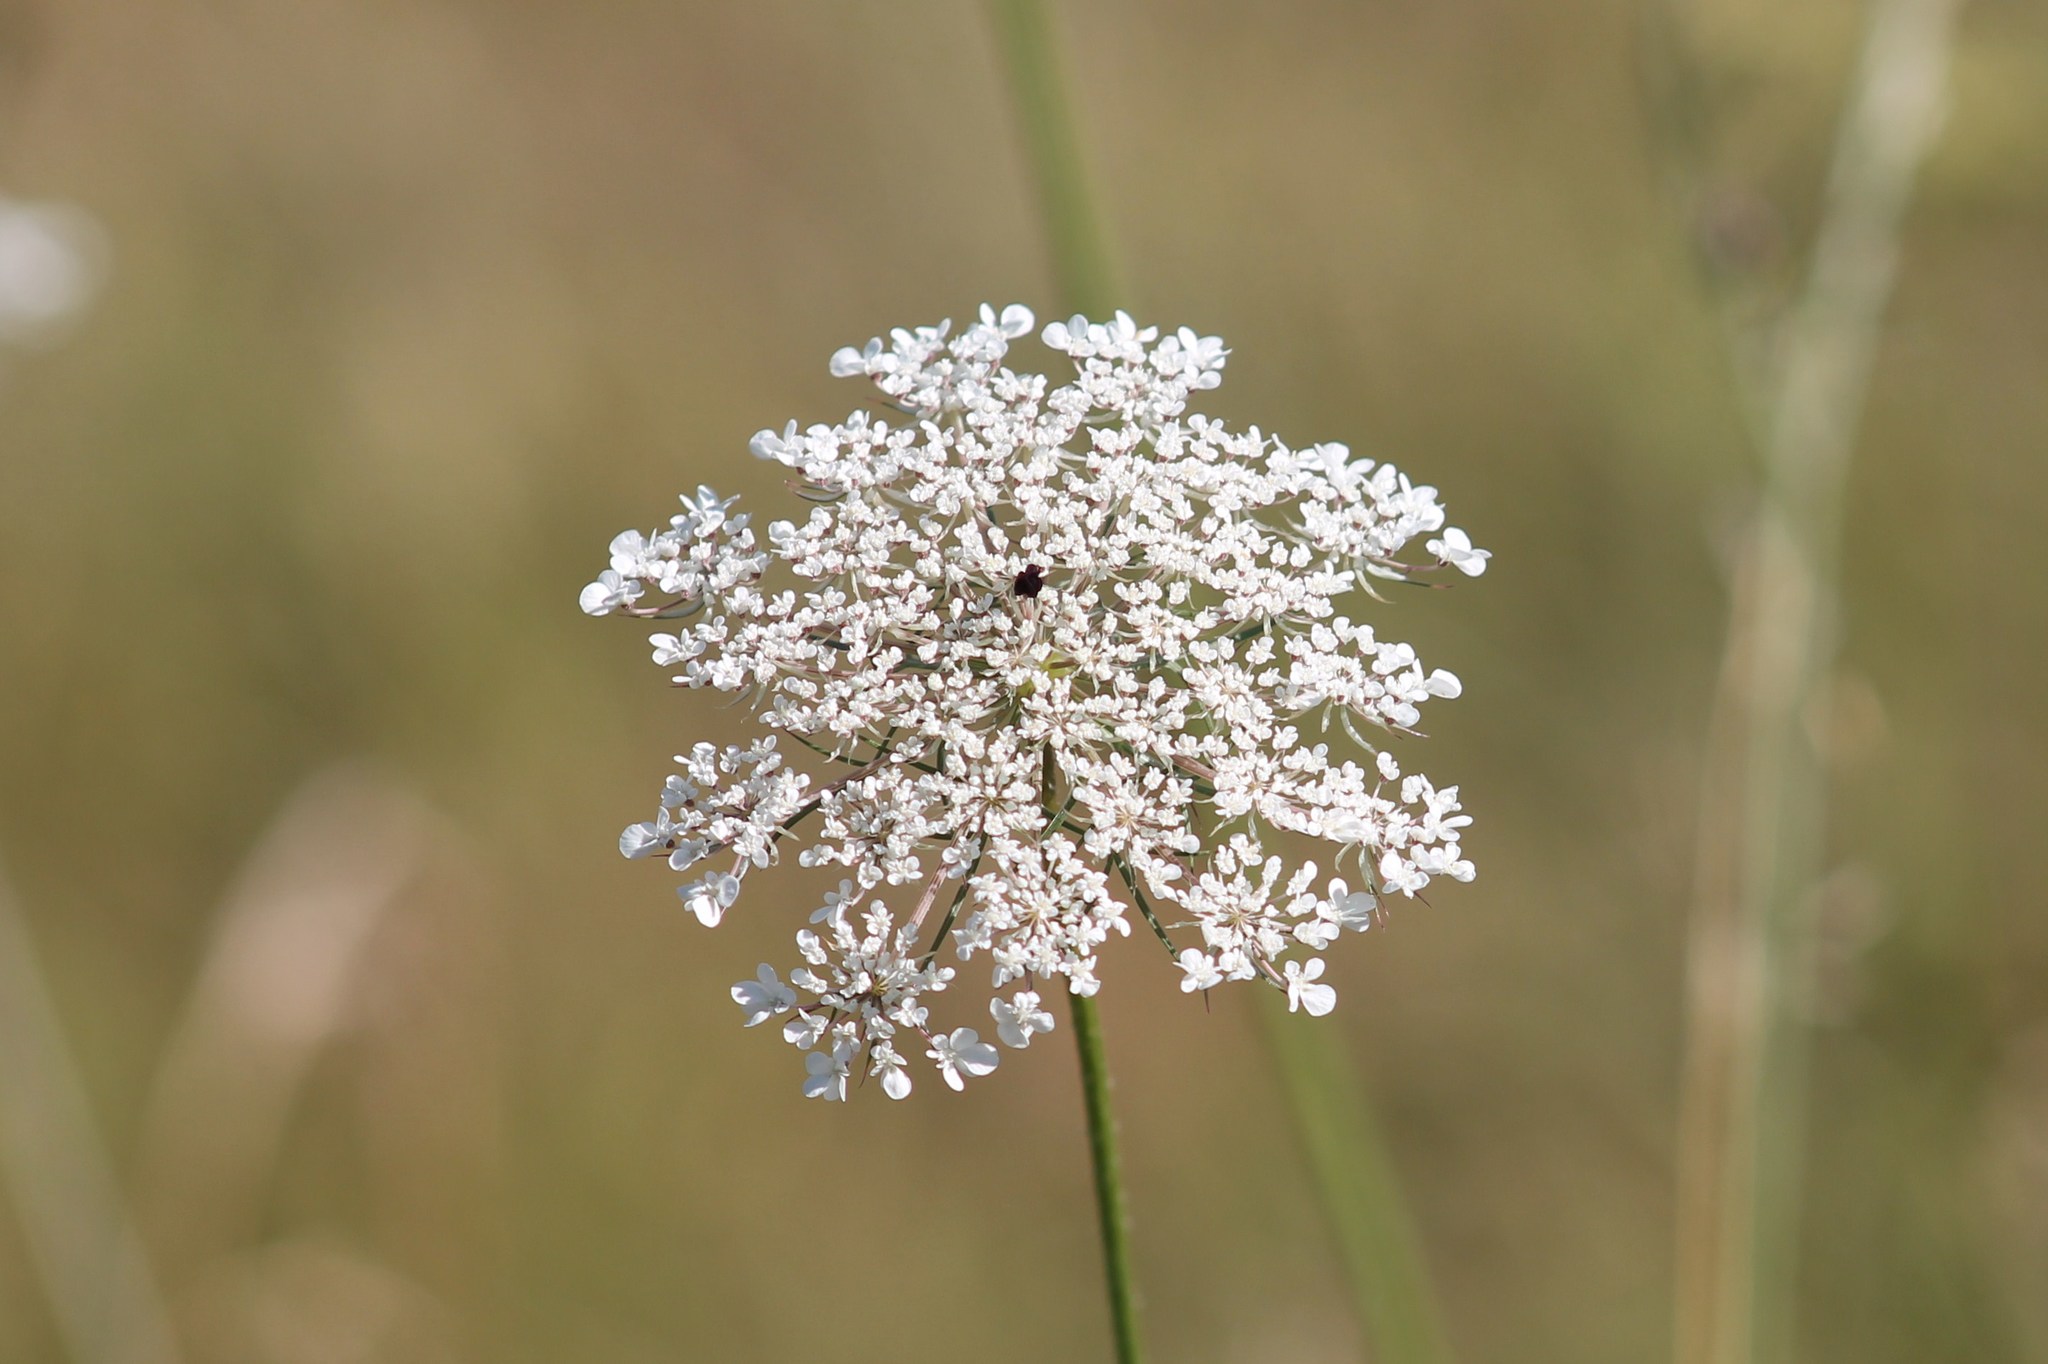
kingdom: Plantae
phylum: Tracheophyta
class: Magnoliopsida
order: Apiales
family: Apiaceae
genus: Daucus
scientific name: Daucus carota
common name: Wild carrot
